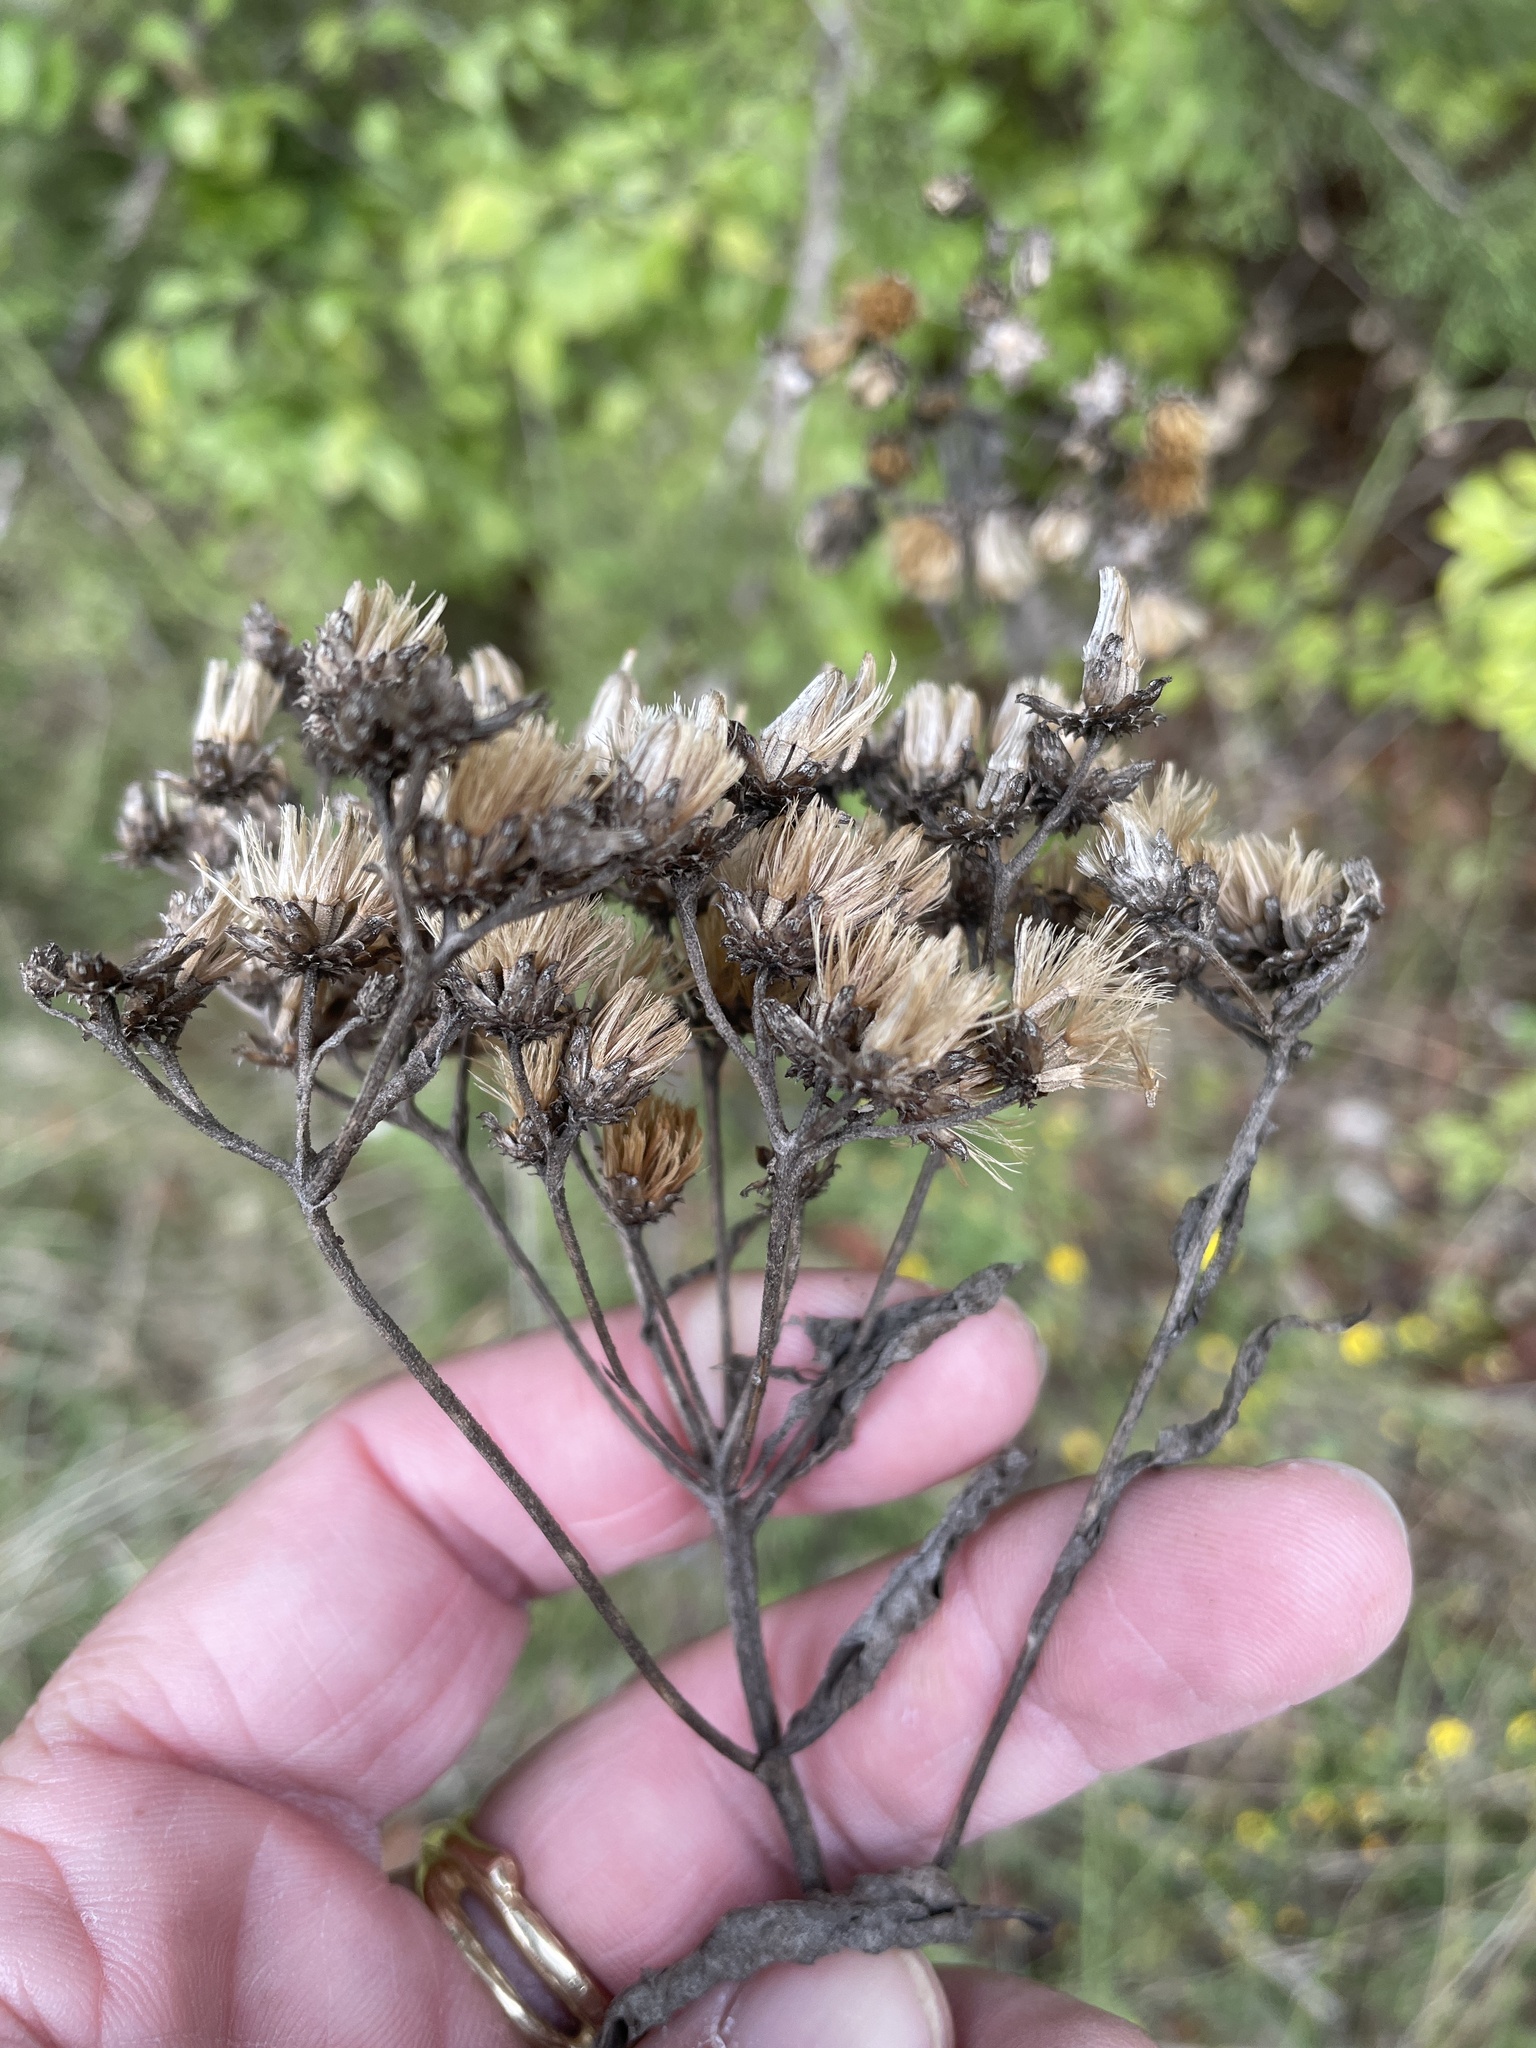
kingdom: Plantae
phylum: Tracheophyta
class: Magnoliopsida
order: Asterales
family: Asteraceae
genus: Vernonia
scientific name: Vernonia baldwinii
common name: Western ironweed
